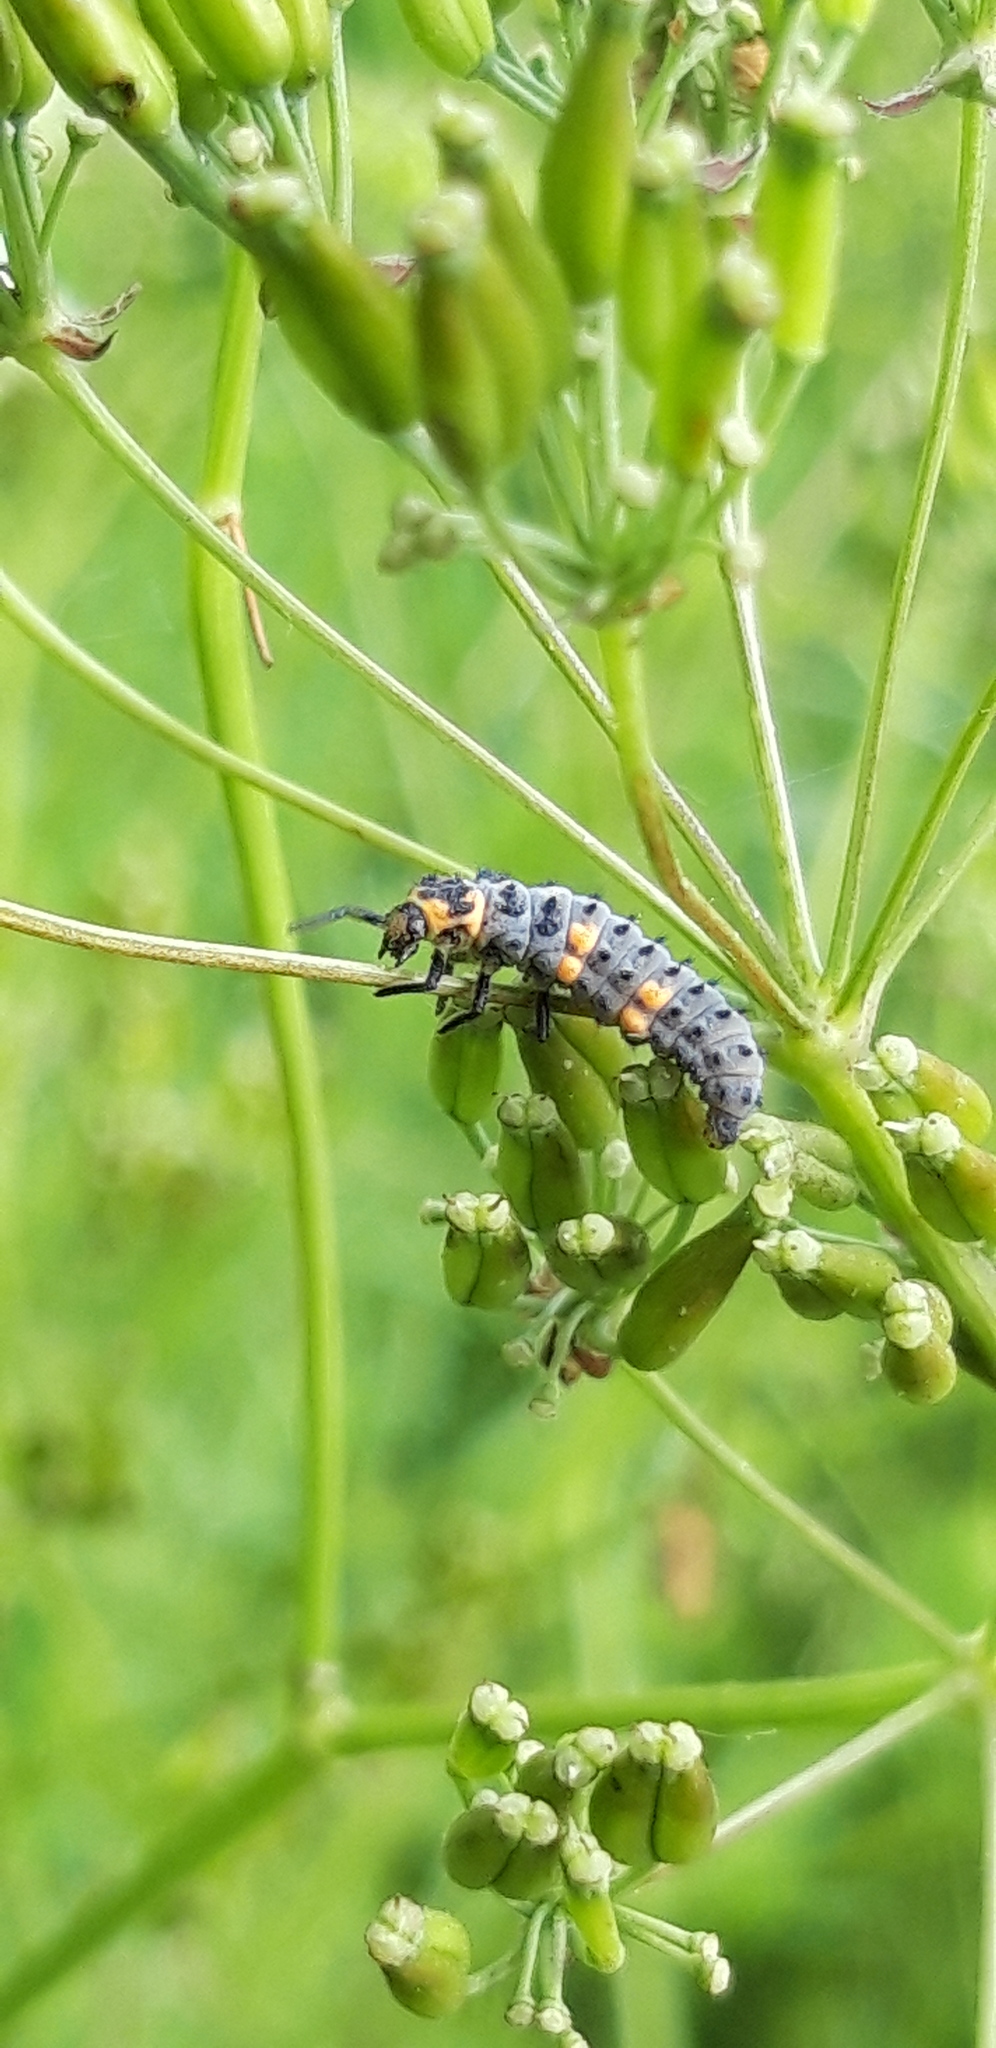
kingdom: Animalia
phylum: Arthropoda
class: Insecta
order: Coleoptera
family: Coccinellidae
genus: Coccinella
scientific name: Coccinella septempunctata
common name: Sevenspotted lady beetle
